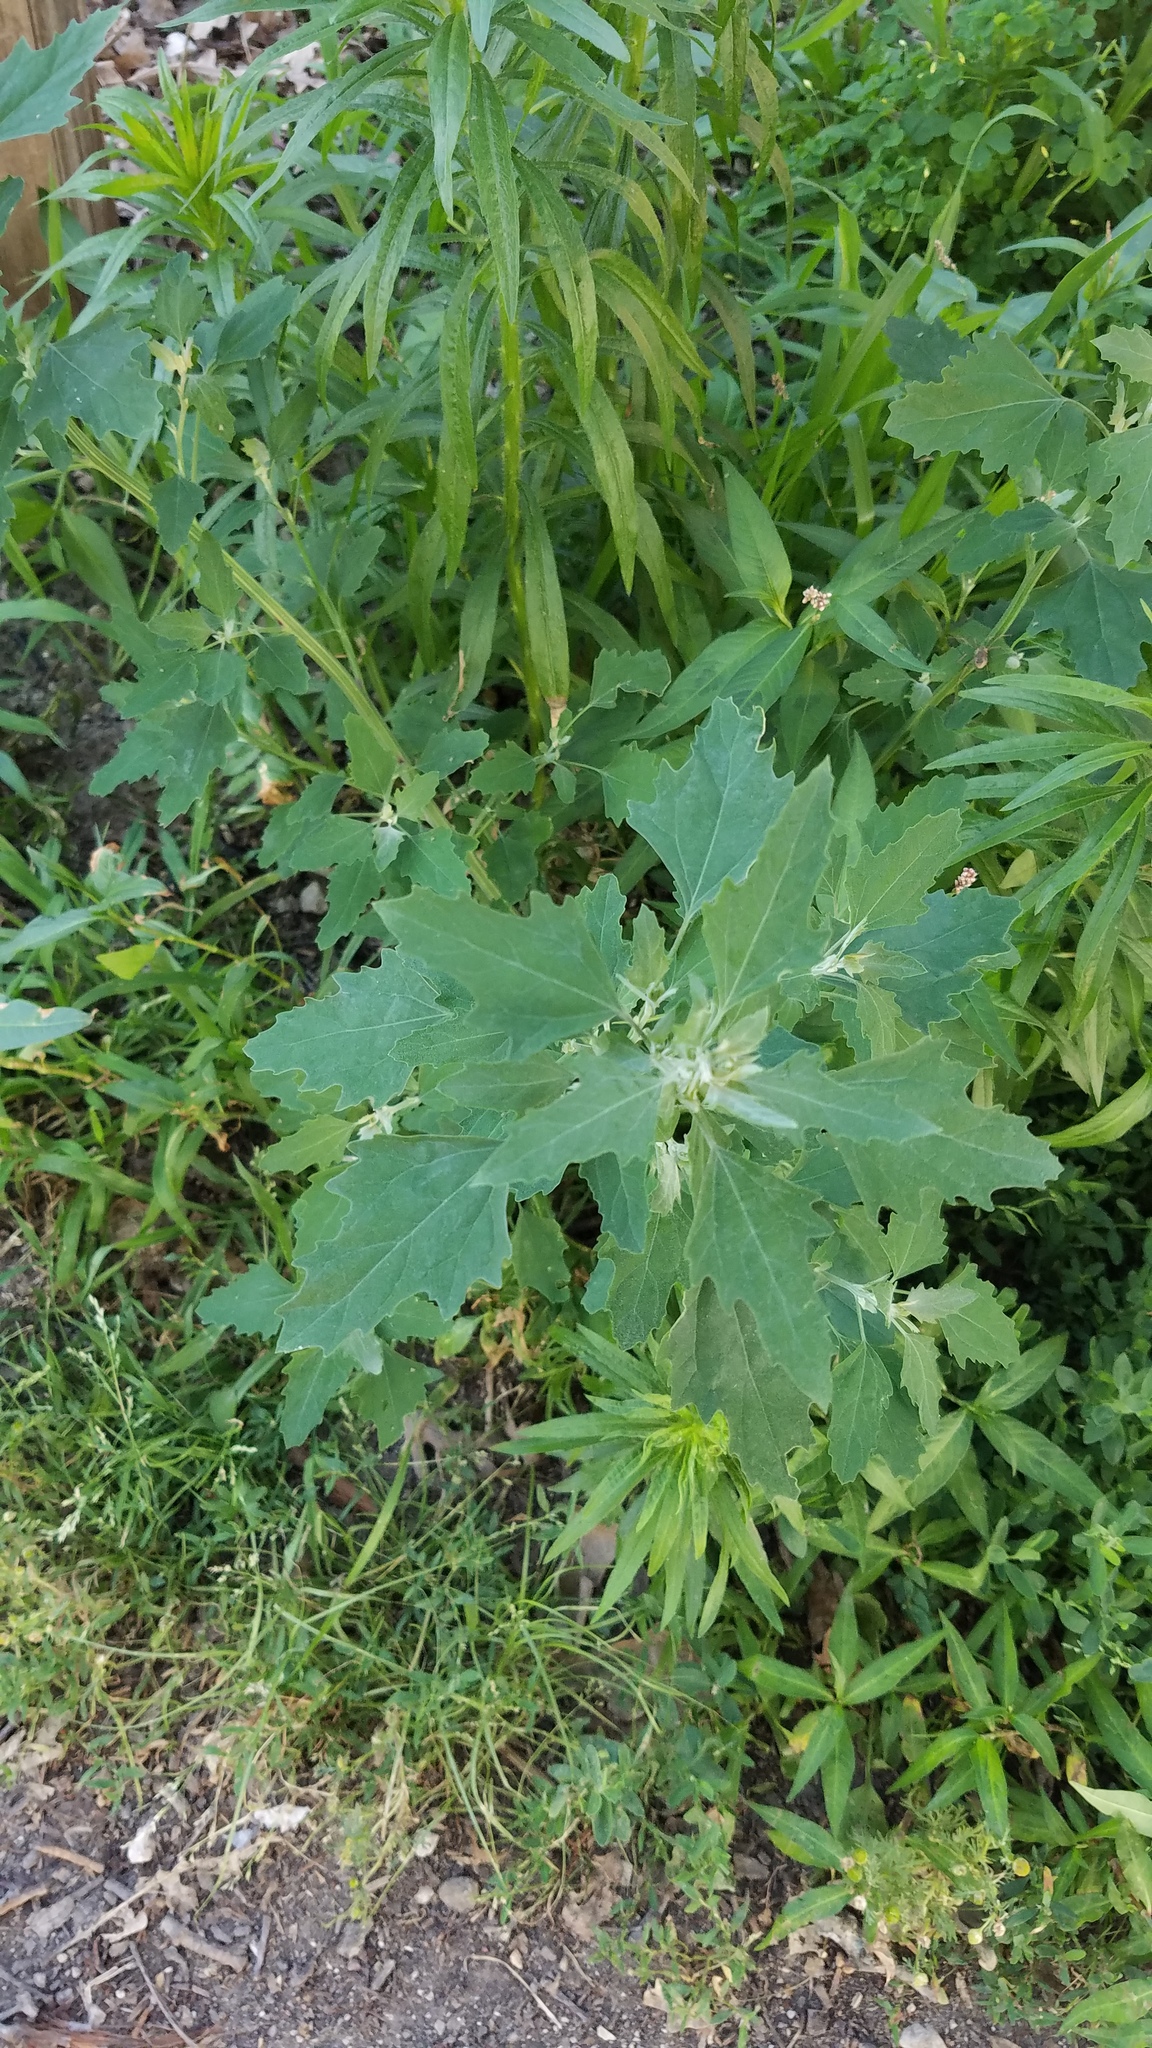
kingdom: Plantae
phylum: Tracheophyta
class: Magnoliopsida
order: Caryophyllales
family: Amaranthaceae
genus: Chenopodium
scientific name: Chenopodium album
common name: Fat-hen
